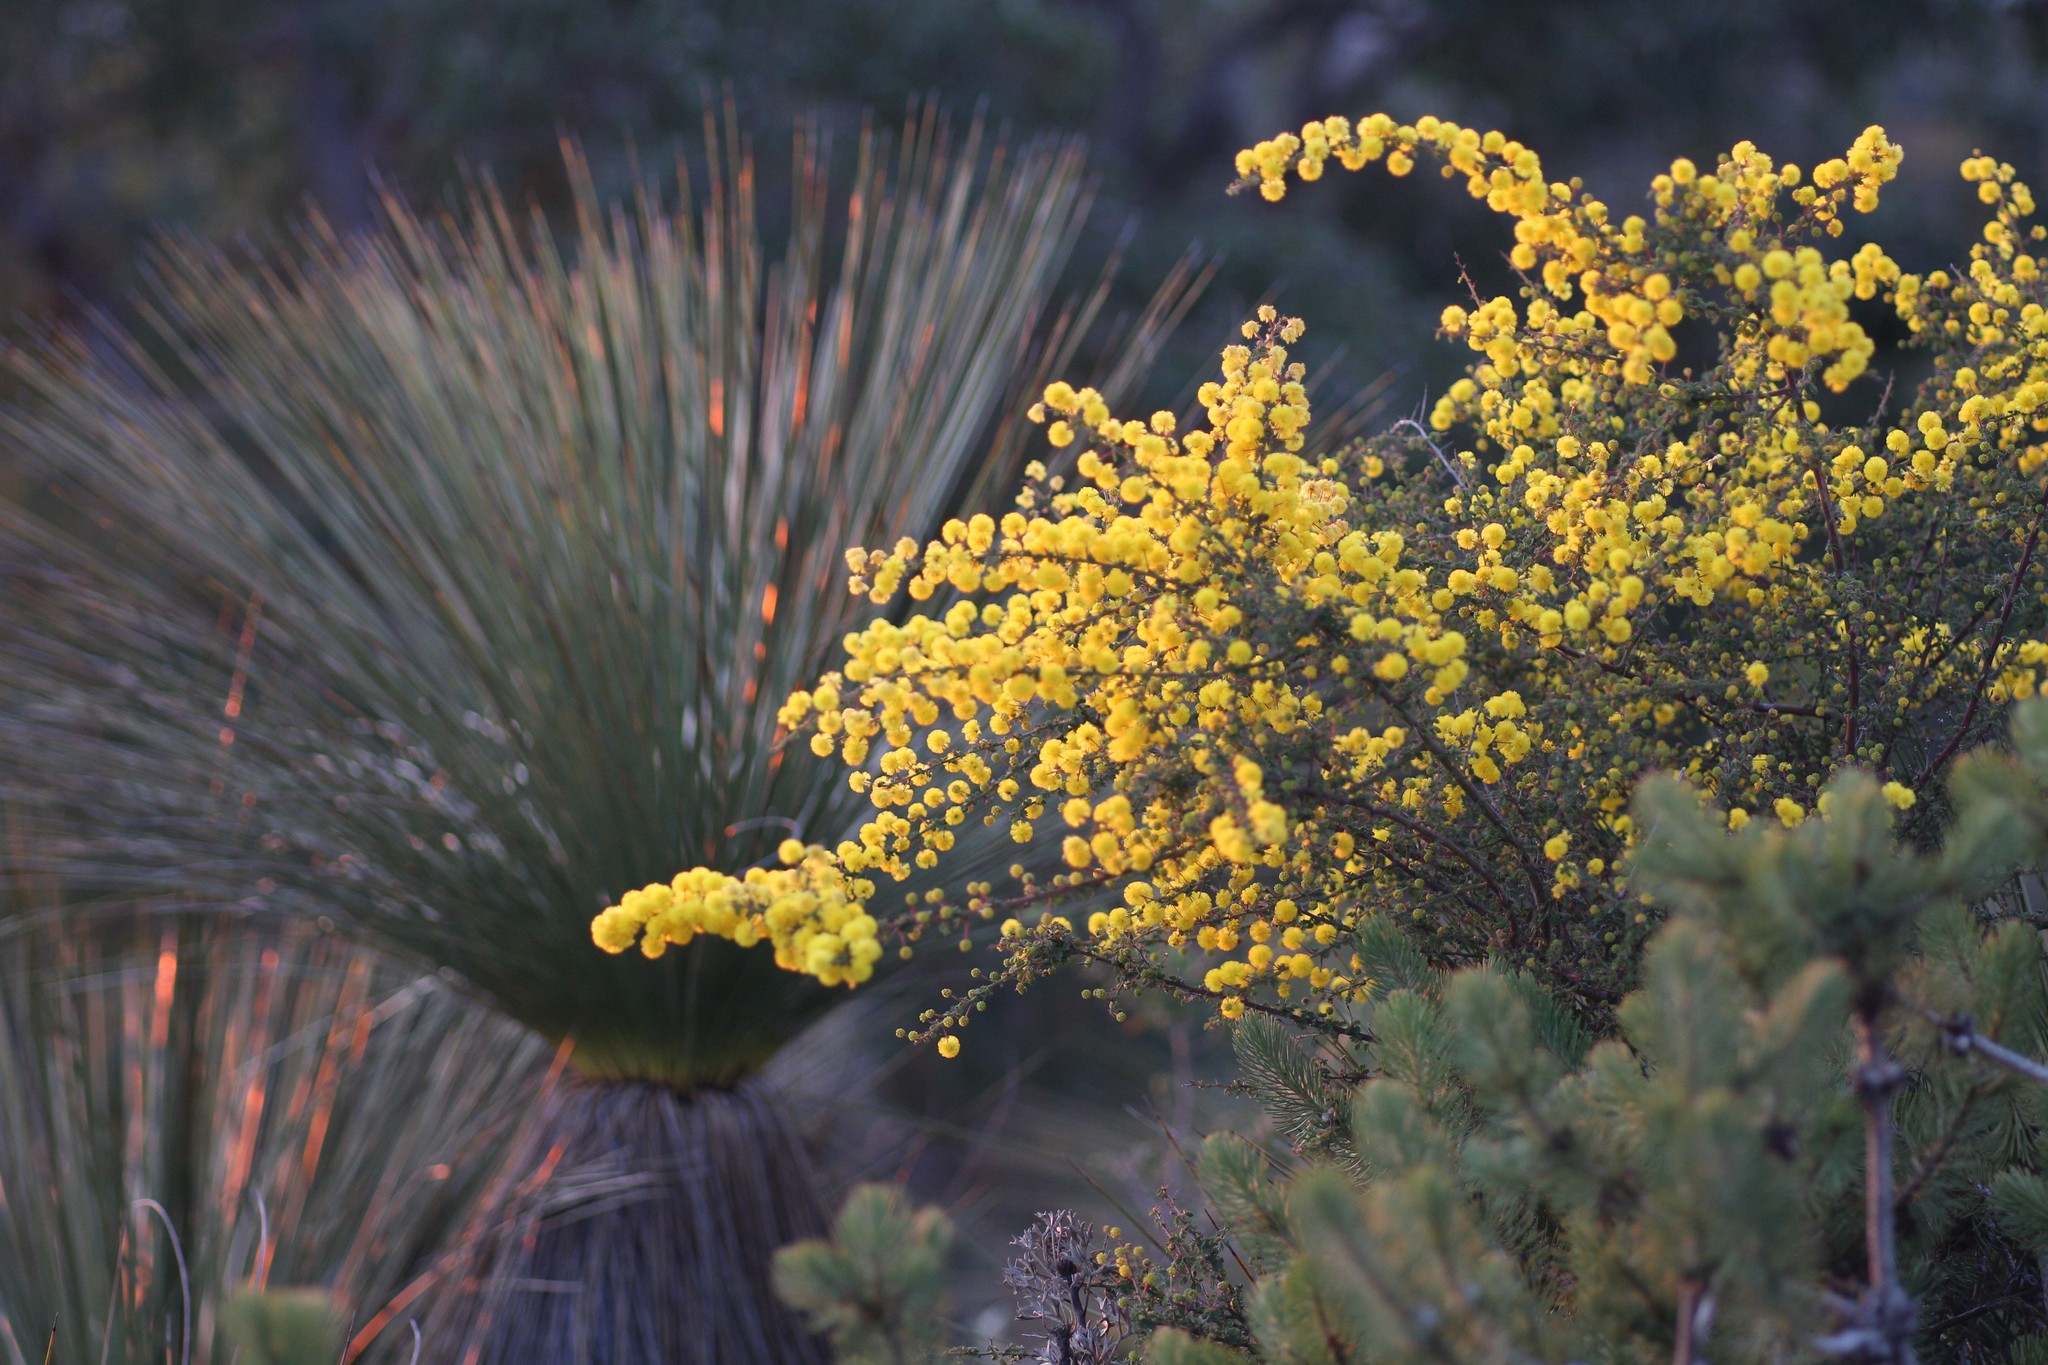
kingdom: Plantae
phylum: Tracheophyta
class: Magnoliopsida
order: Fabales
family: Fabaceae
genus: Acacia
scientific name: Acacia pulchella
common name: Prickly moses
